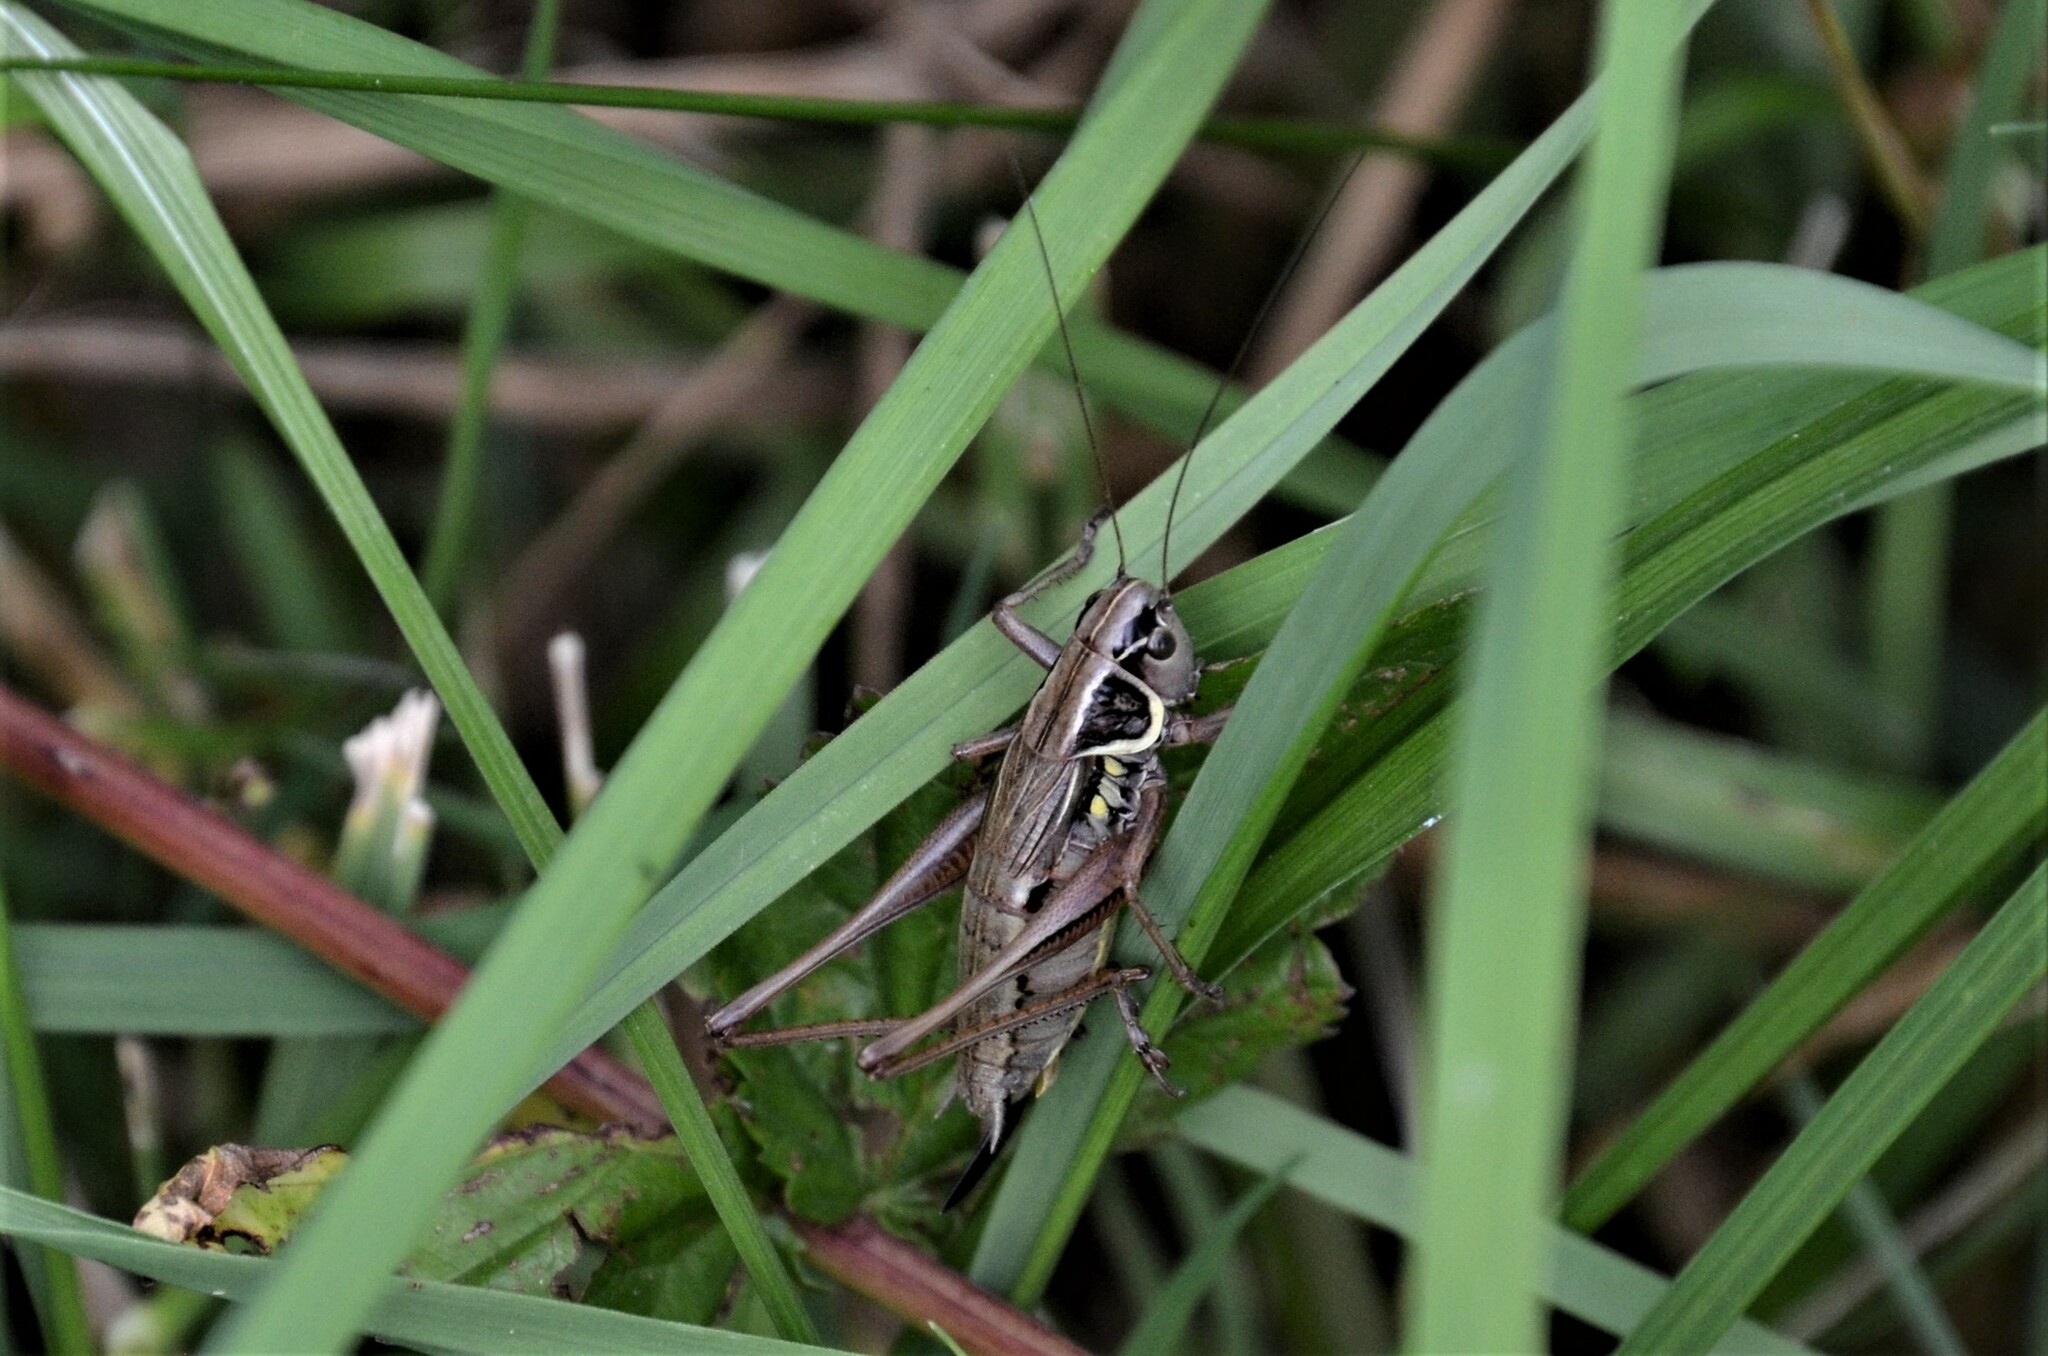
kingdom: Animalia
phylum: Arthropoda
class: Insecta
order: Orthoptera
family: Tettigoniidae
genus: Roeseliana
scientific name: Roeseliana roeselii
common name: Roesel's bush cricket
